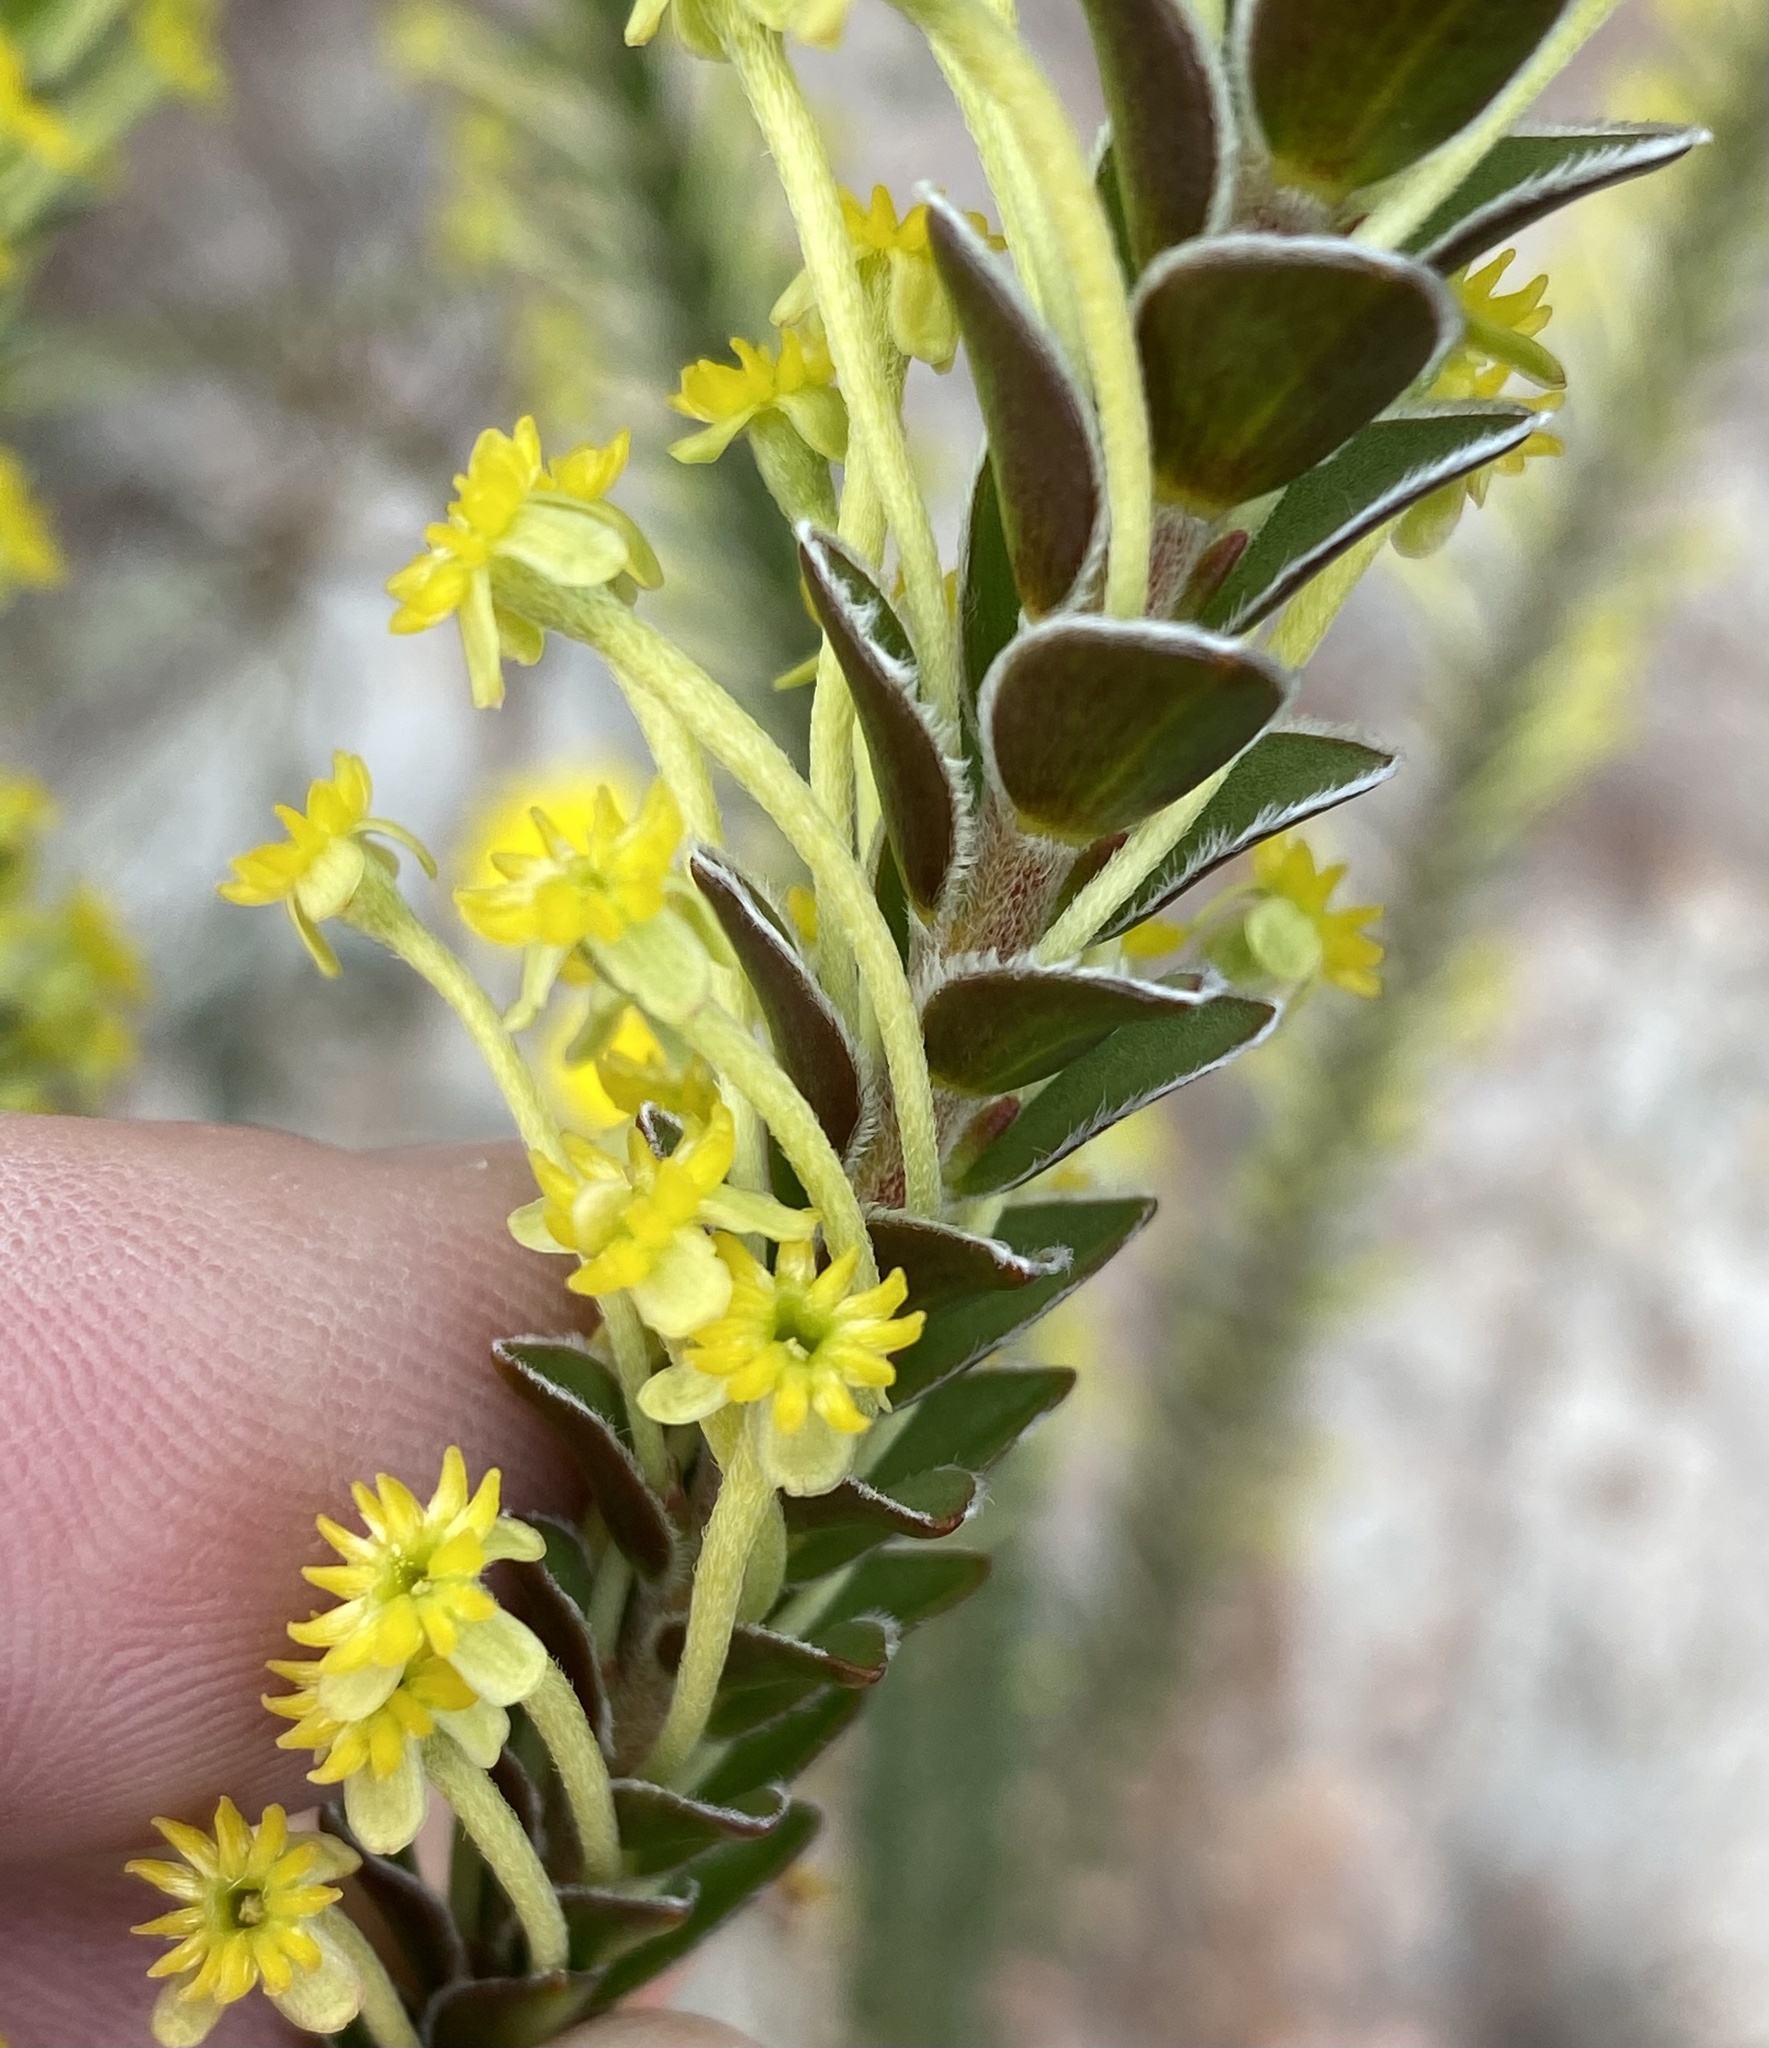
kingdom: Plantae
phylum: Tracheophyta
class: Magnoliopsida
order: Malvales
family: Thymelaeaceae
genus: Struthiola
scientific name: Struthiola argentea
